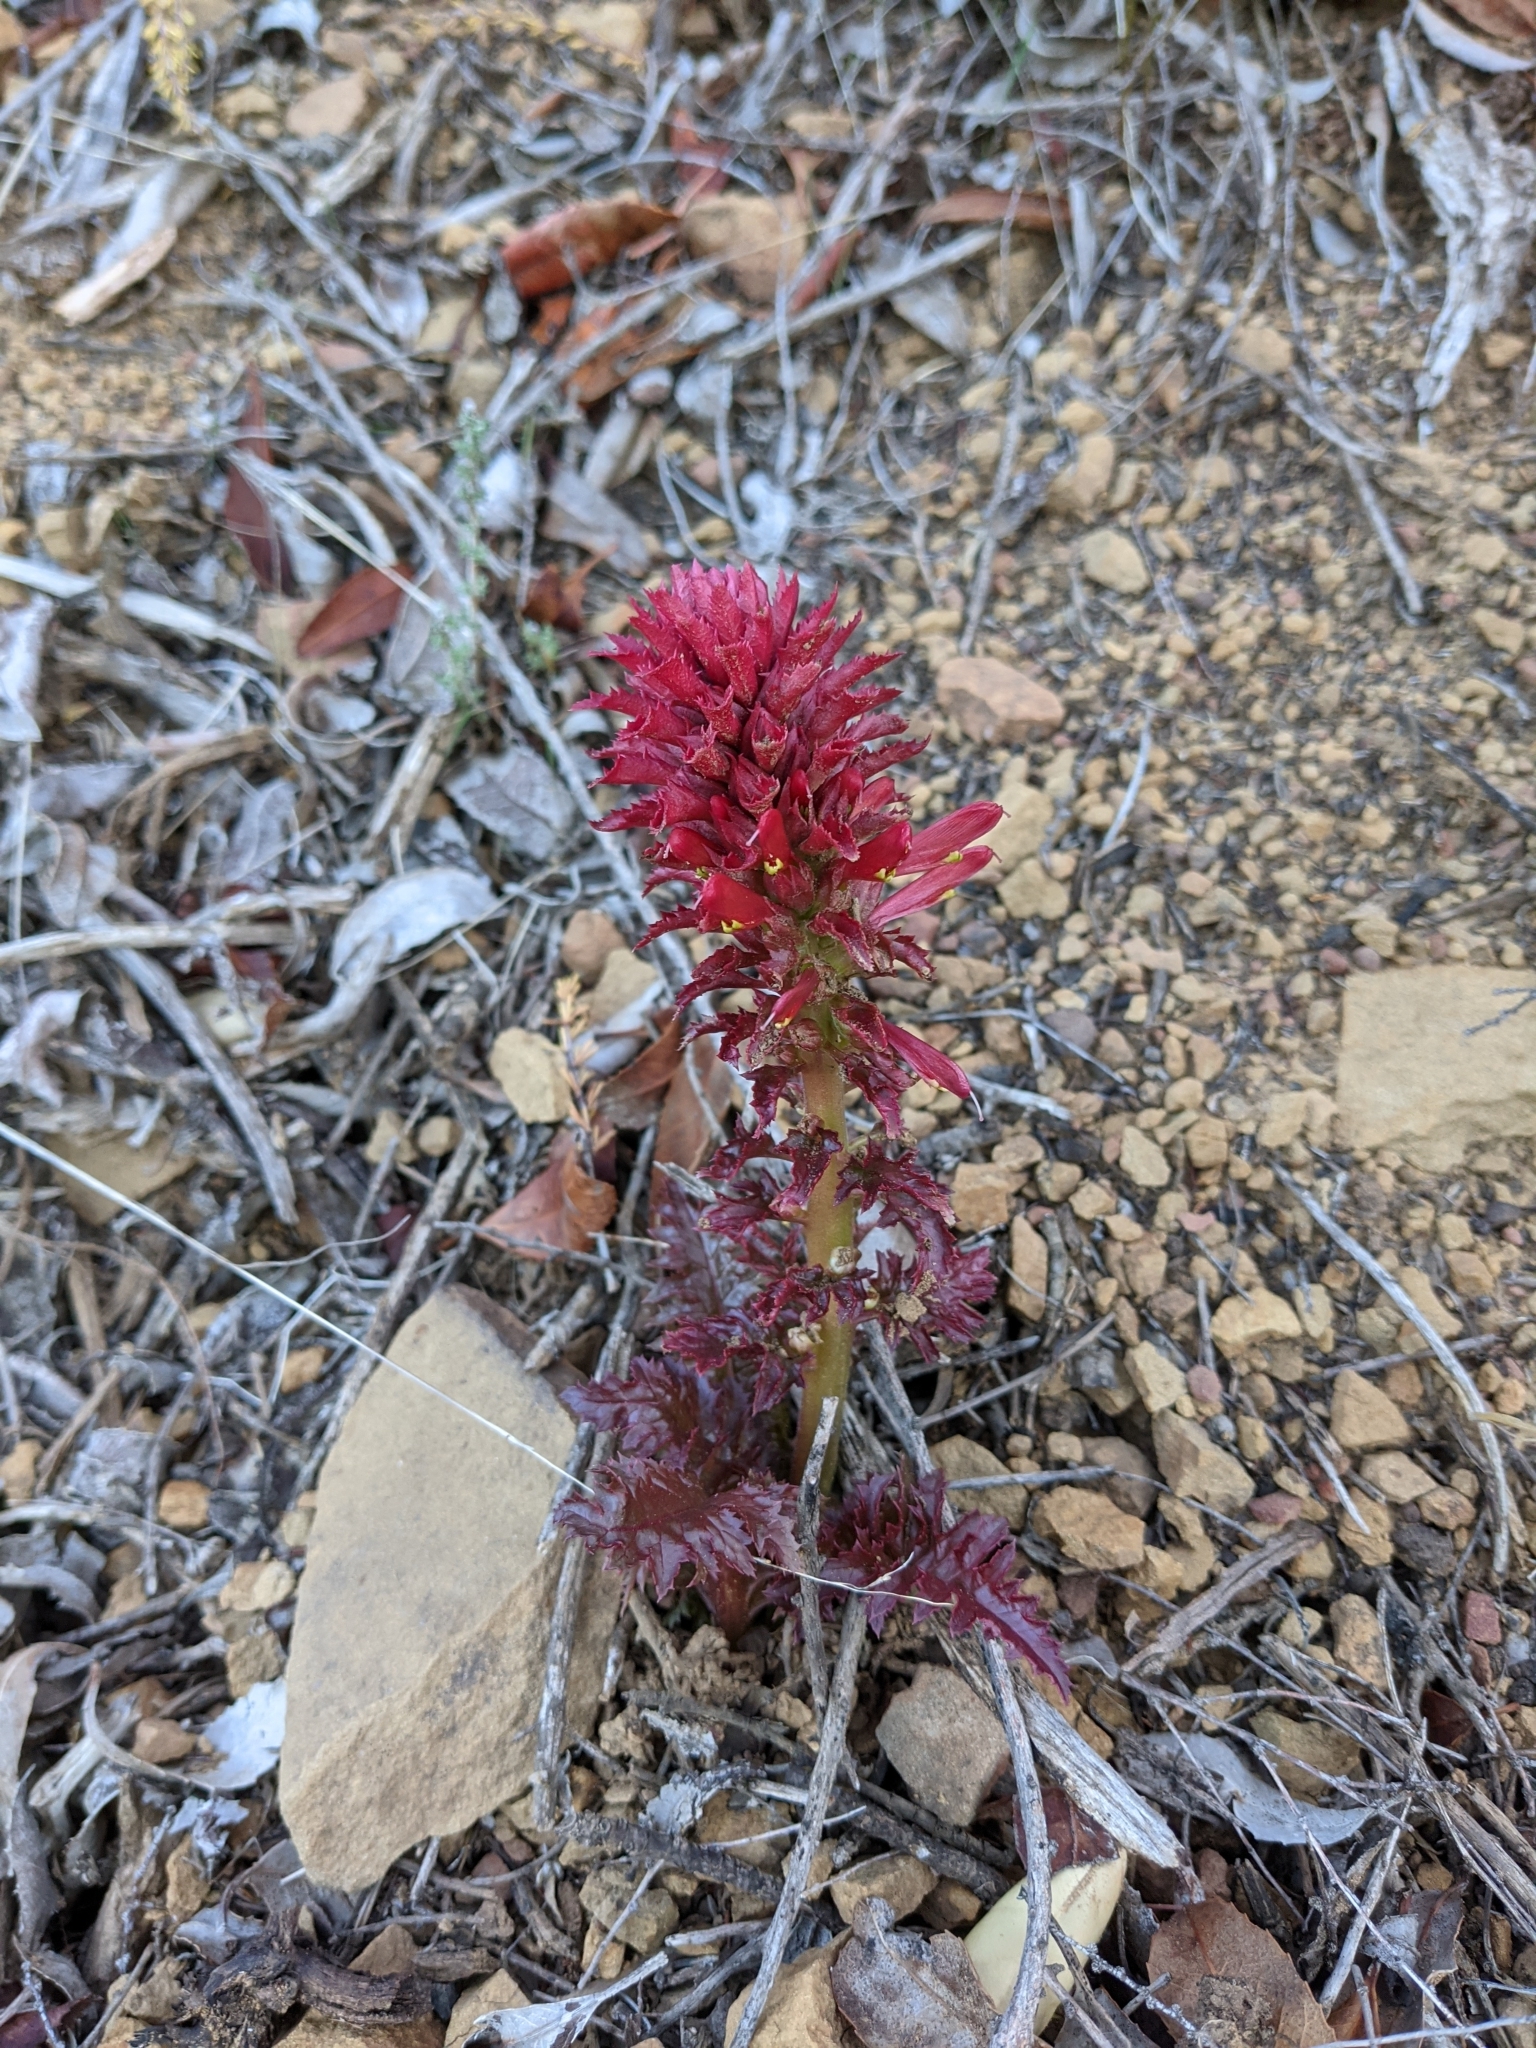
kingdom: Plantae
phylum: Tracheophyta
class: Magnoliopsida
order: Lamiales
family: Orobanchaceae
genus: Pedicularis
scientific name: Pedicularis densiflora
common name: Indian warrior
